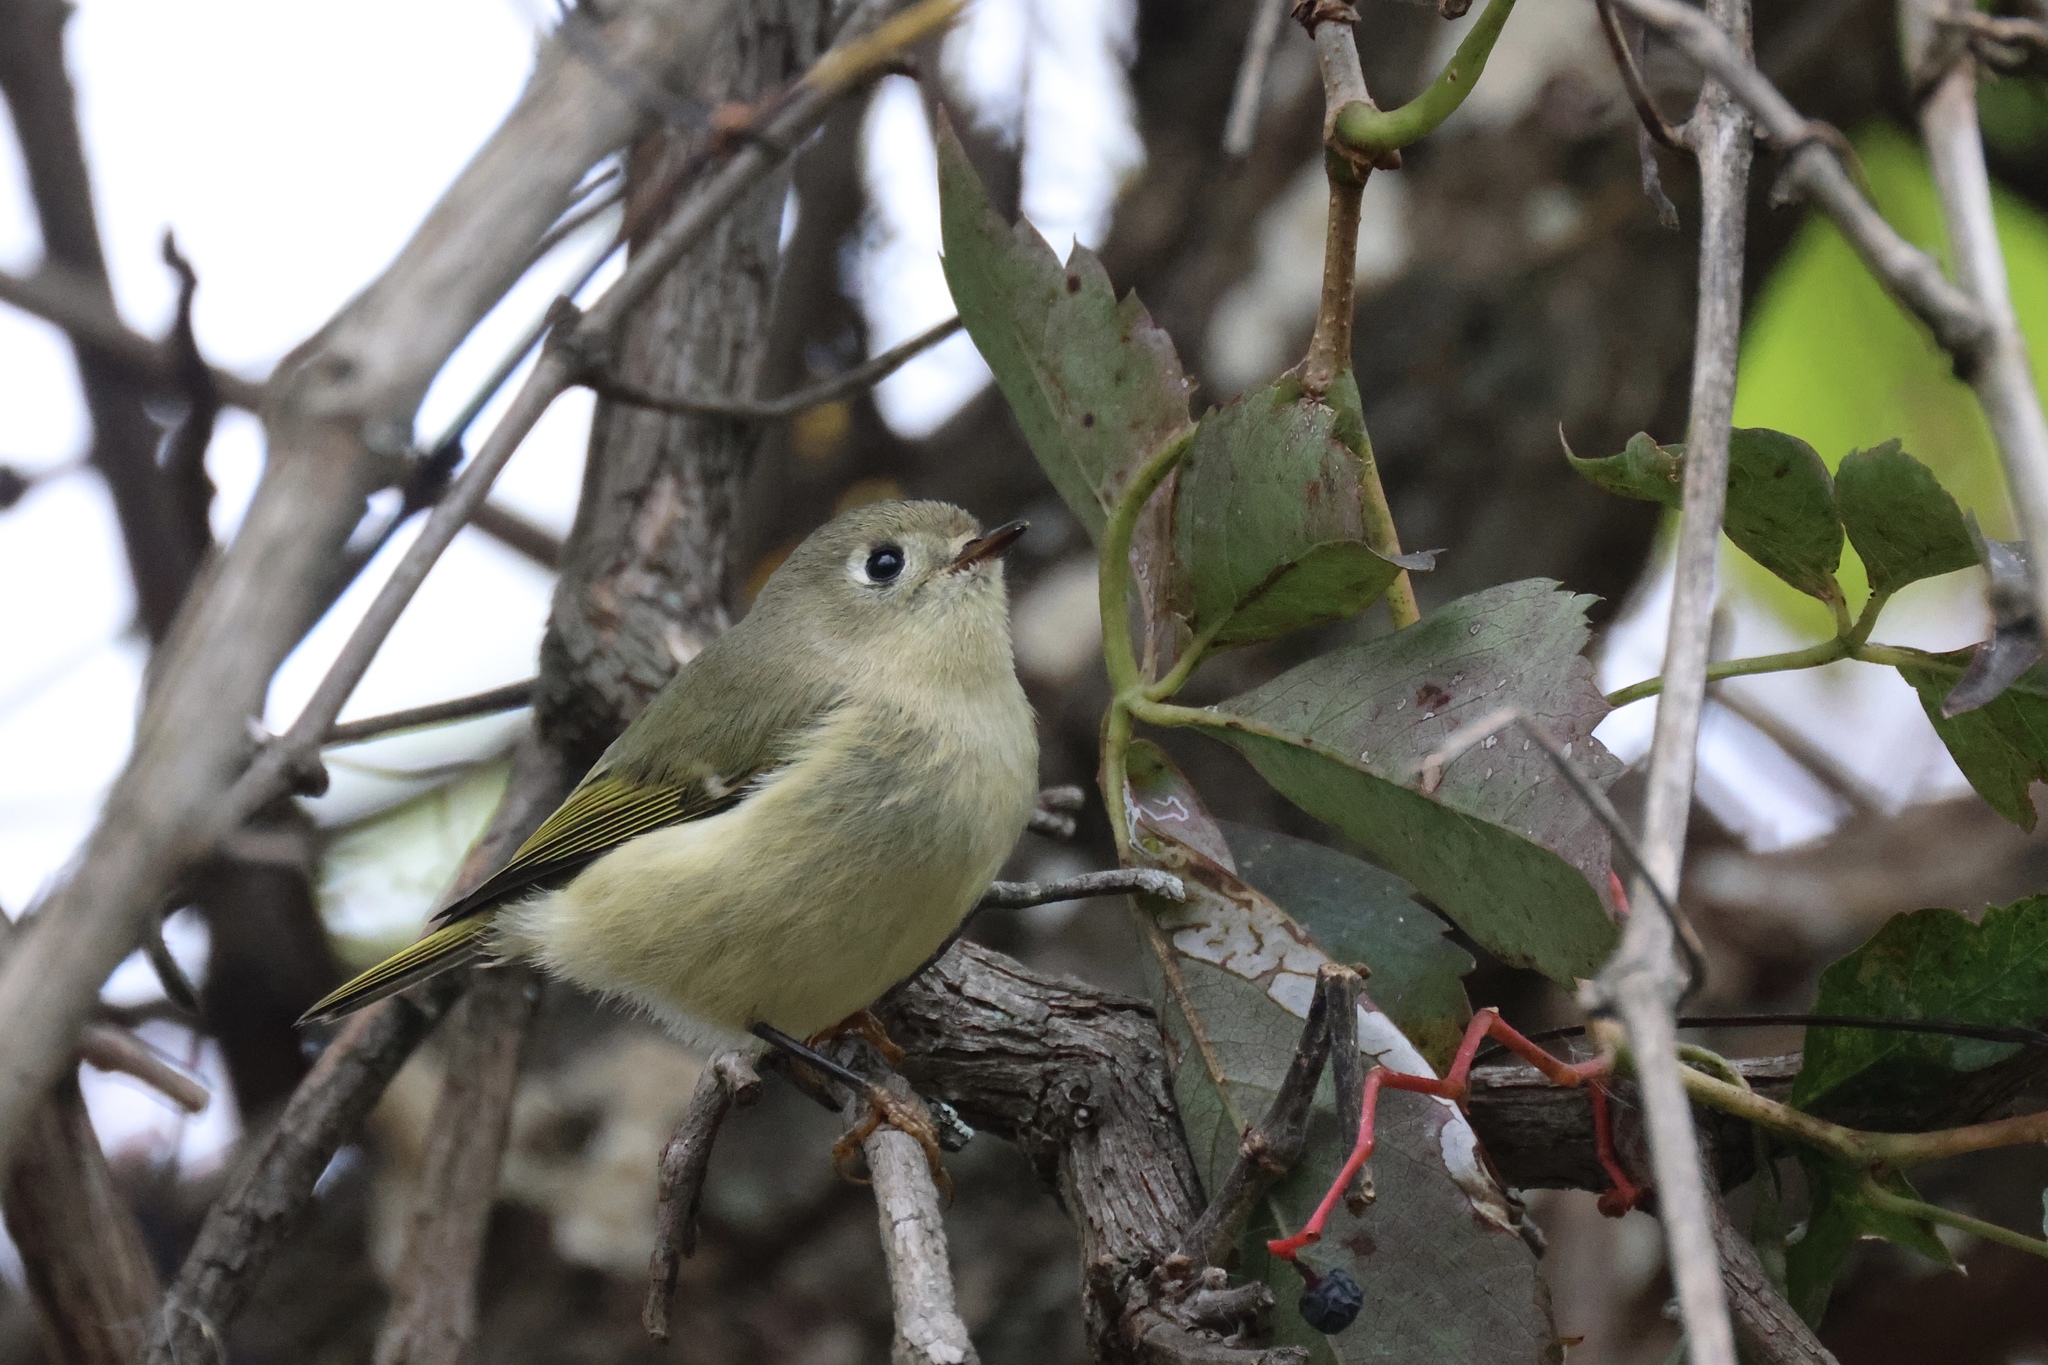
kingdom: Animalia
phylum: Chordata
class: Aves
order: Passeriformes
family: Regulidae
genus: Regulus
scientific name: Regulus calendula
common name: Ruby-crowned kinglet
